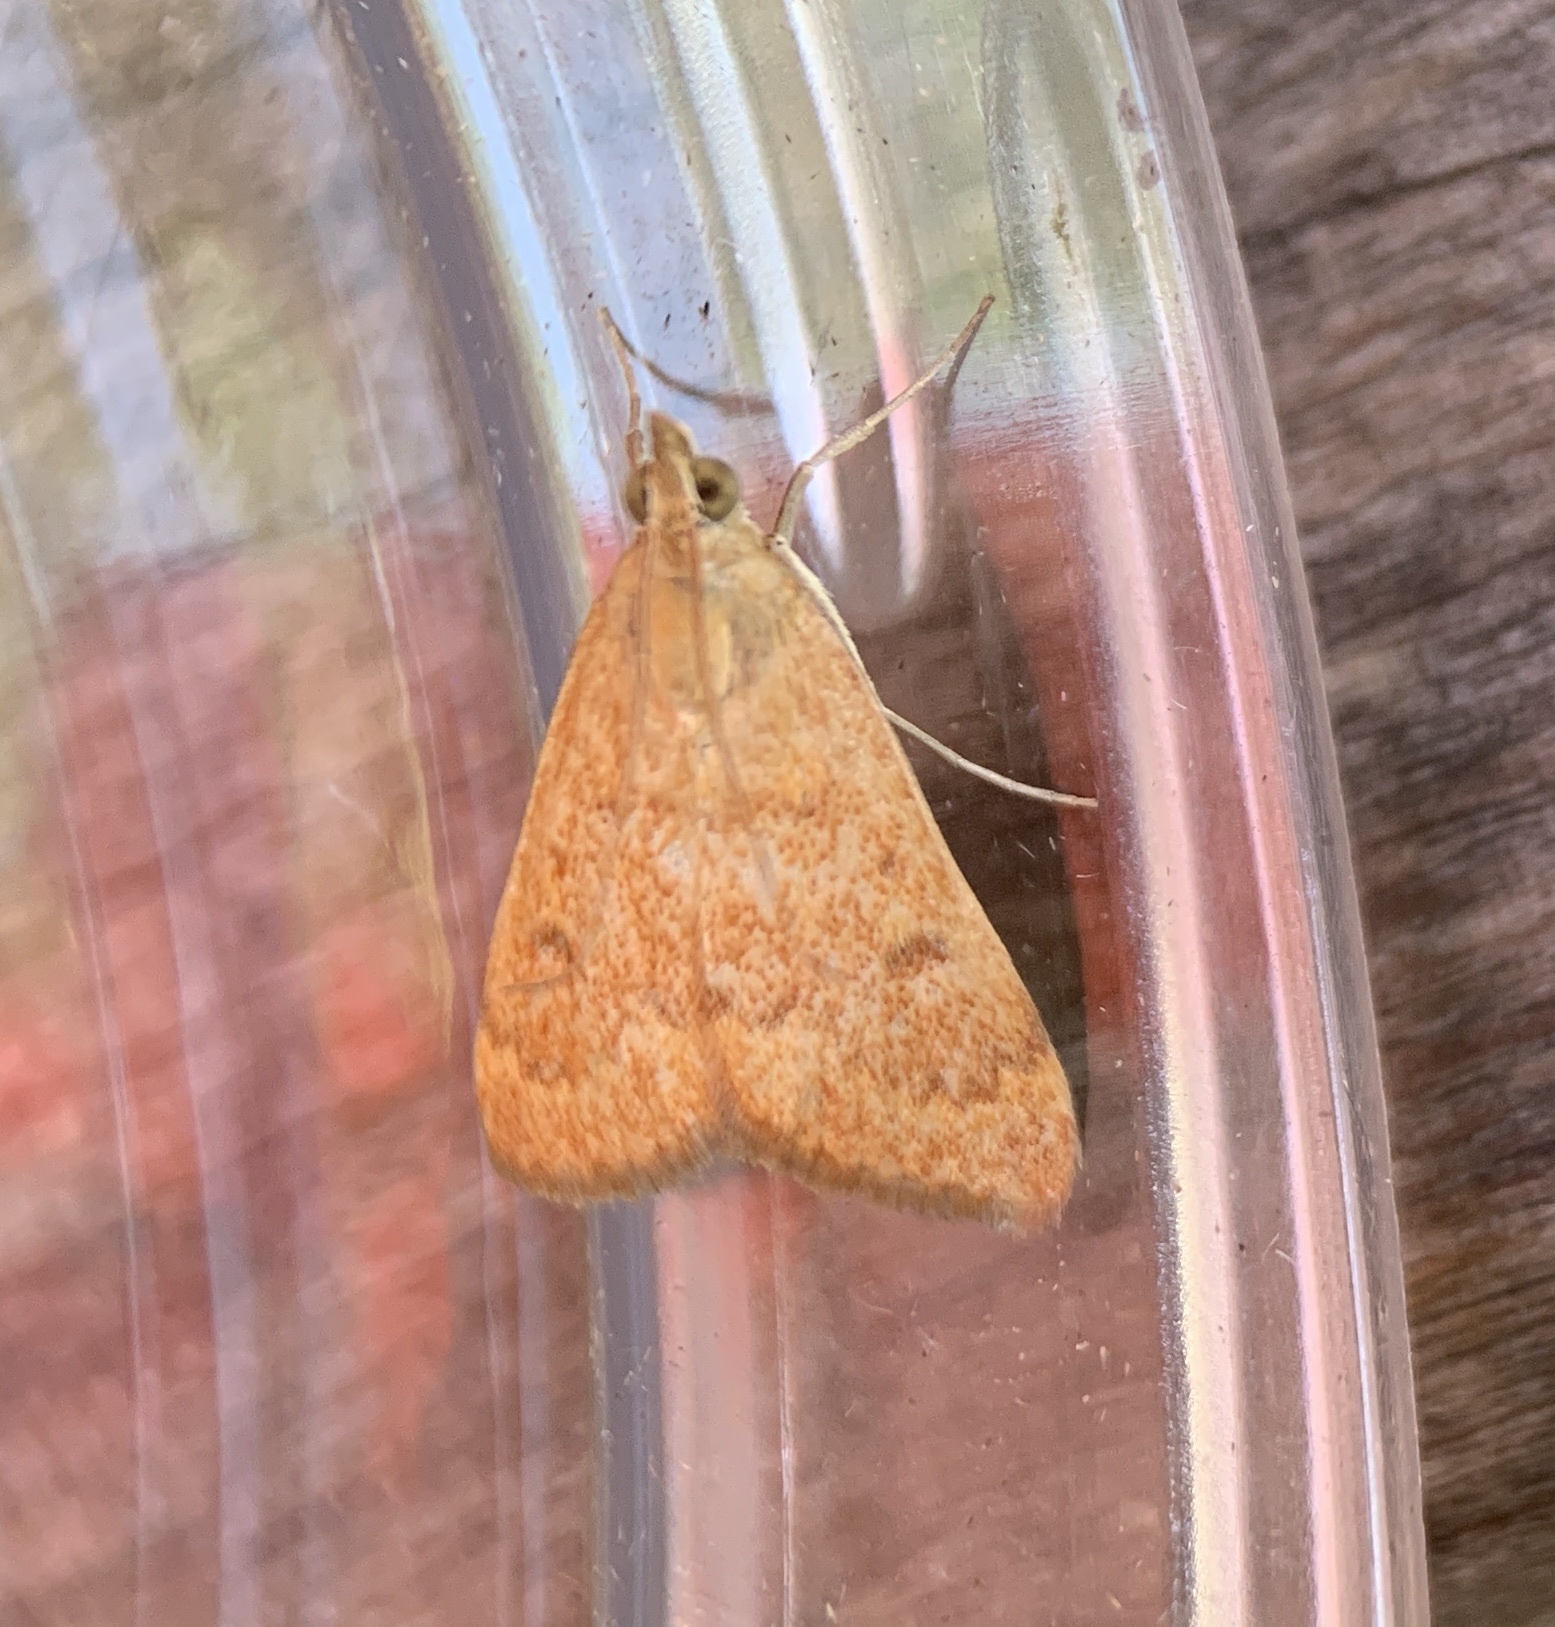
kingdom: Animalia
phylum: Arthropoda
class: Insecta
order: Lepidoptera
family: Crambidae
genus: Achyra
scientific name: Achyra rantalis
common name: Garden webworm
